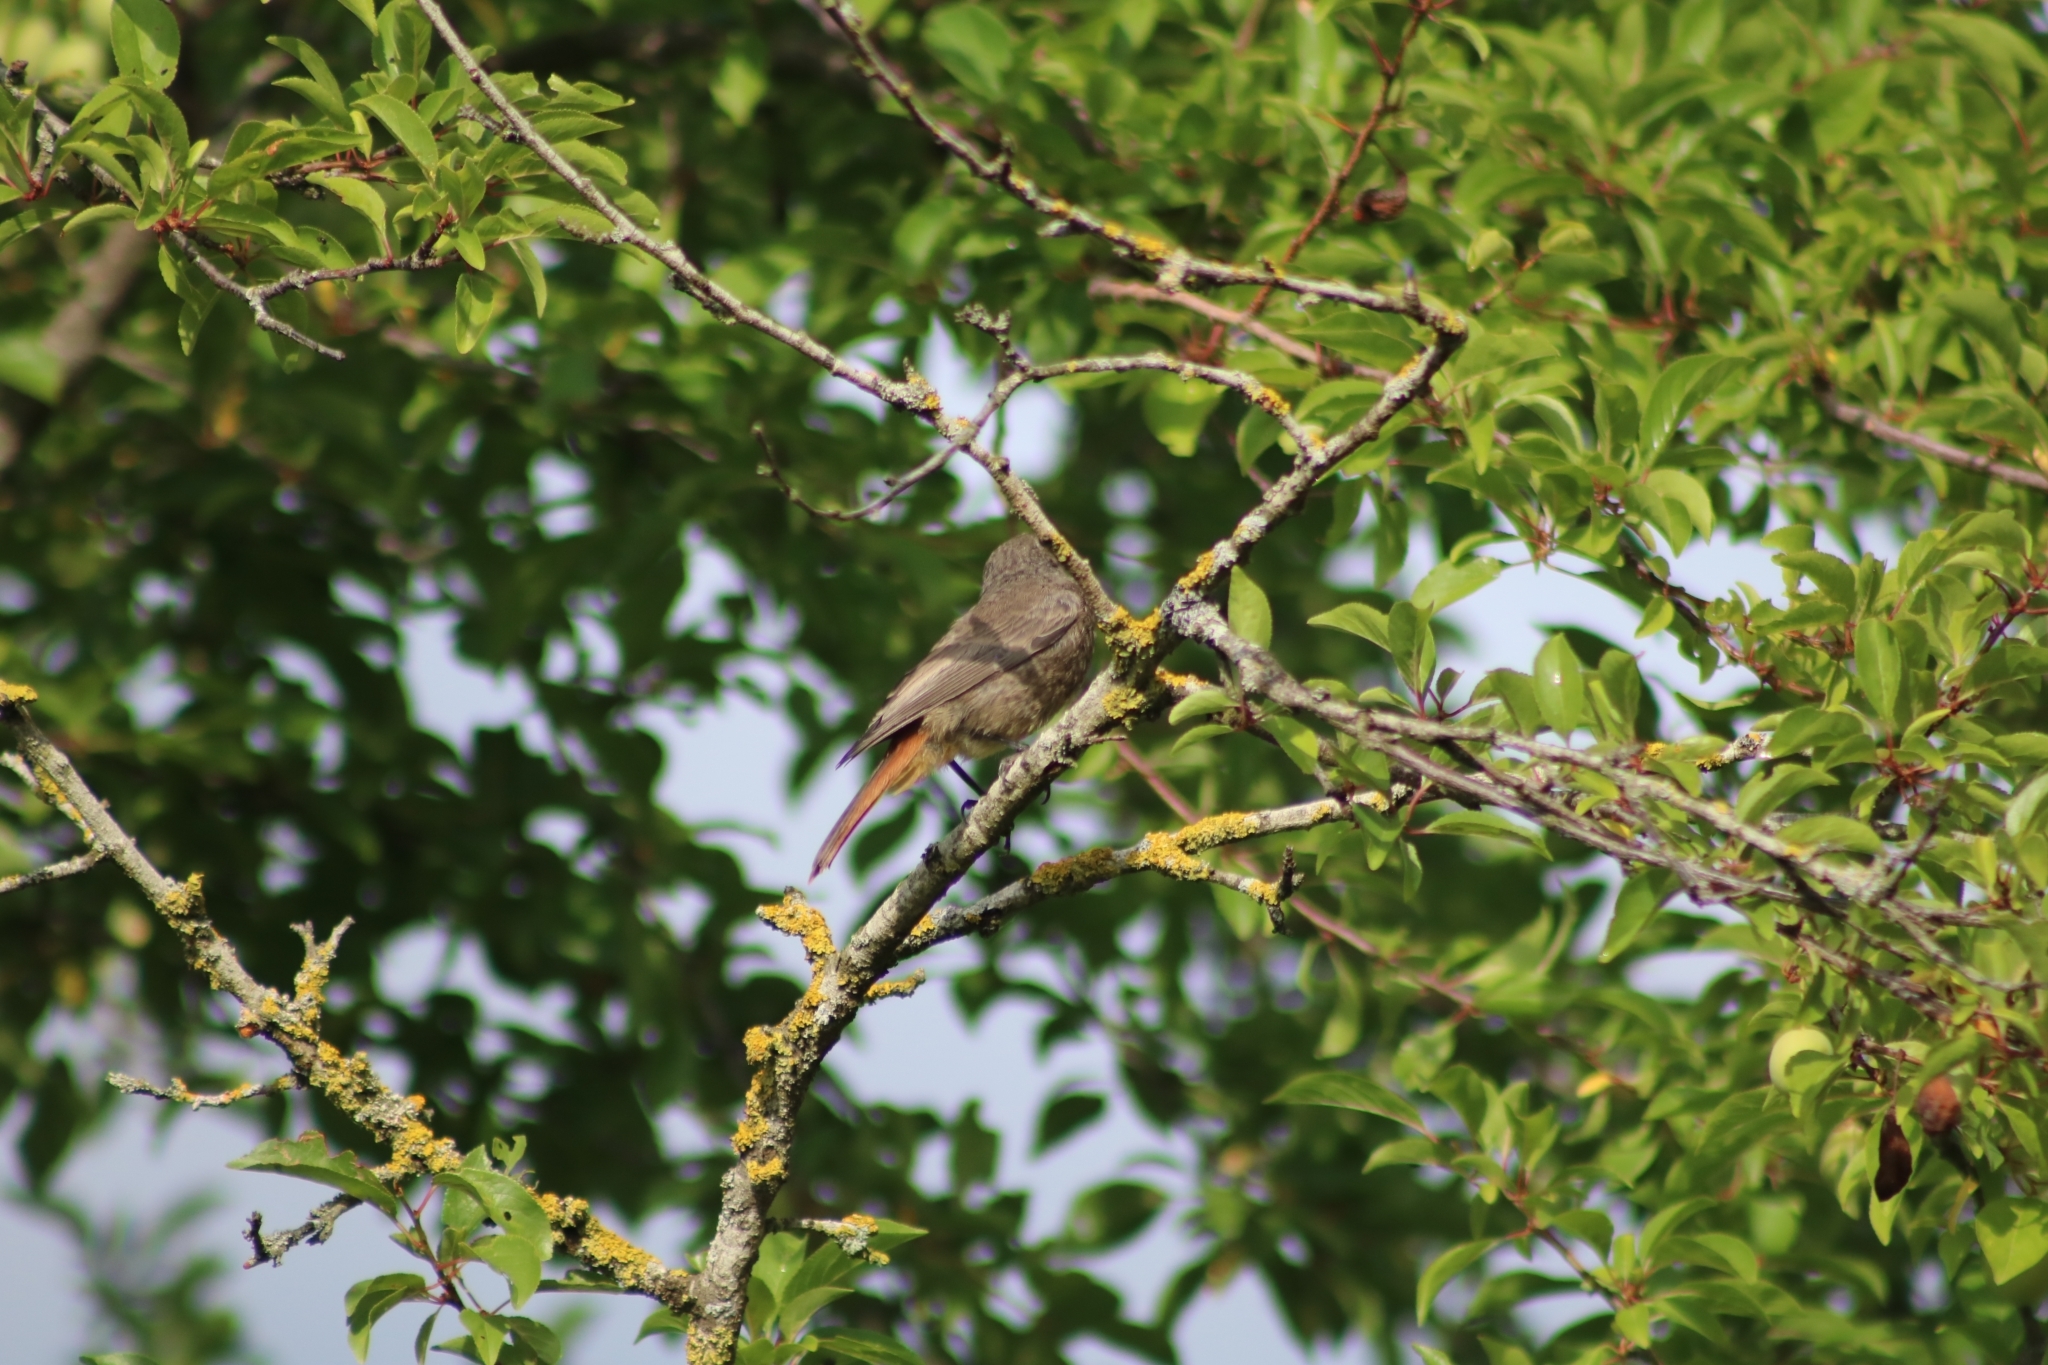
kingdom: Animalia
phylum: Chordata
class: Aves
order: Passeriformes
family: Muscicapidae
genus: Phoenicurus
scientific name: Phoenicurus ochruros
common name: Black redstart
